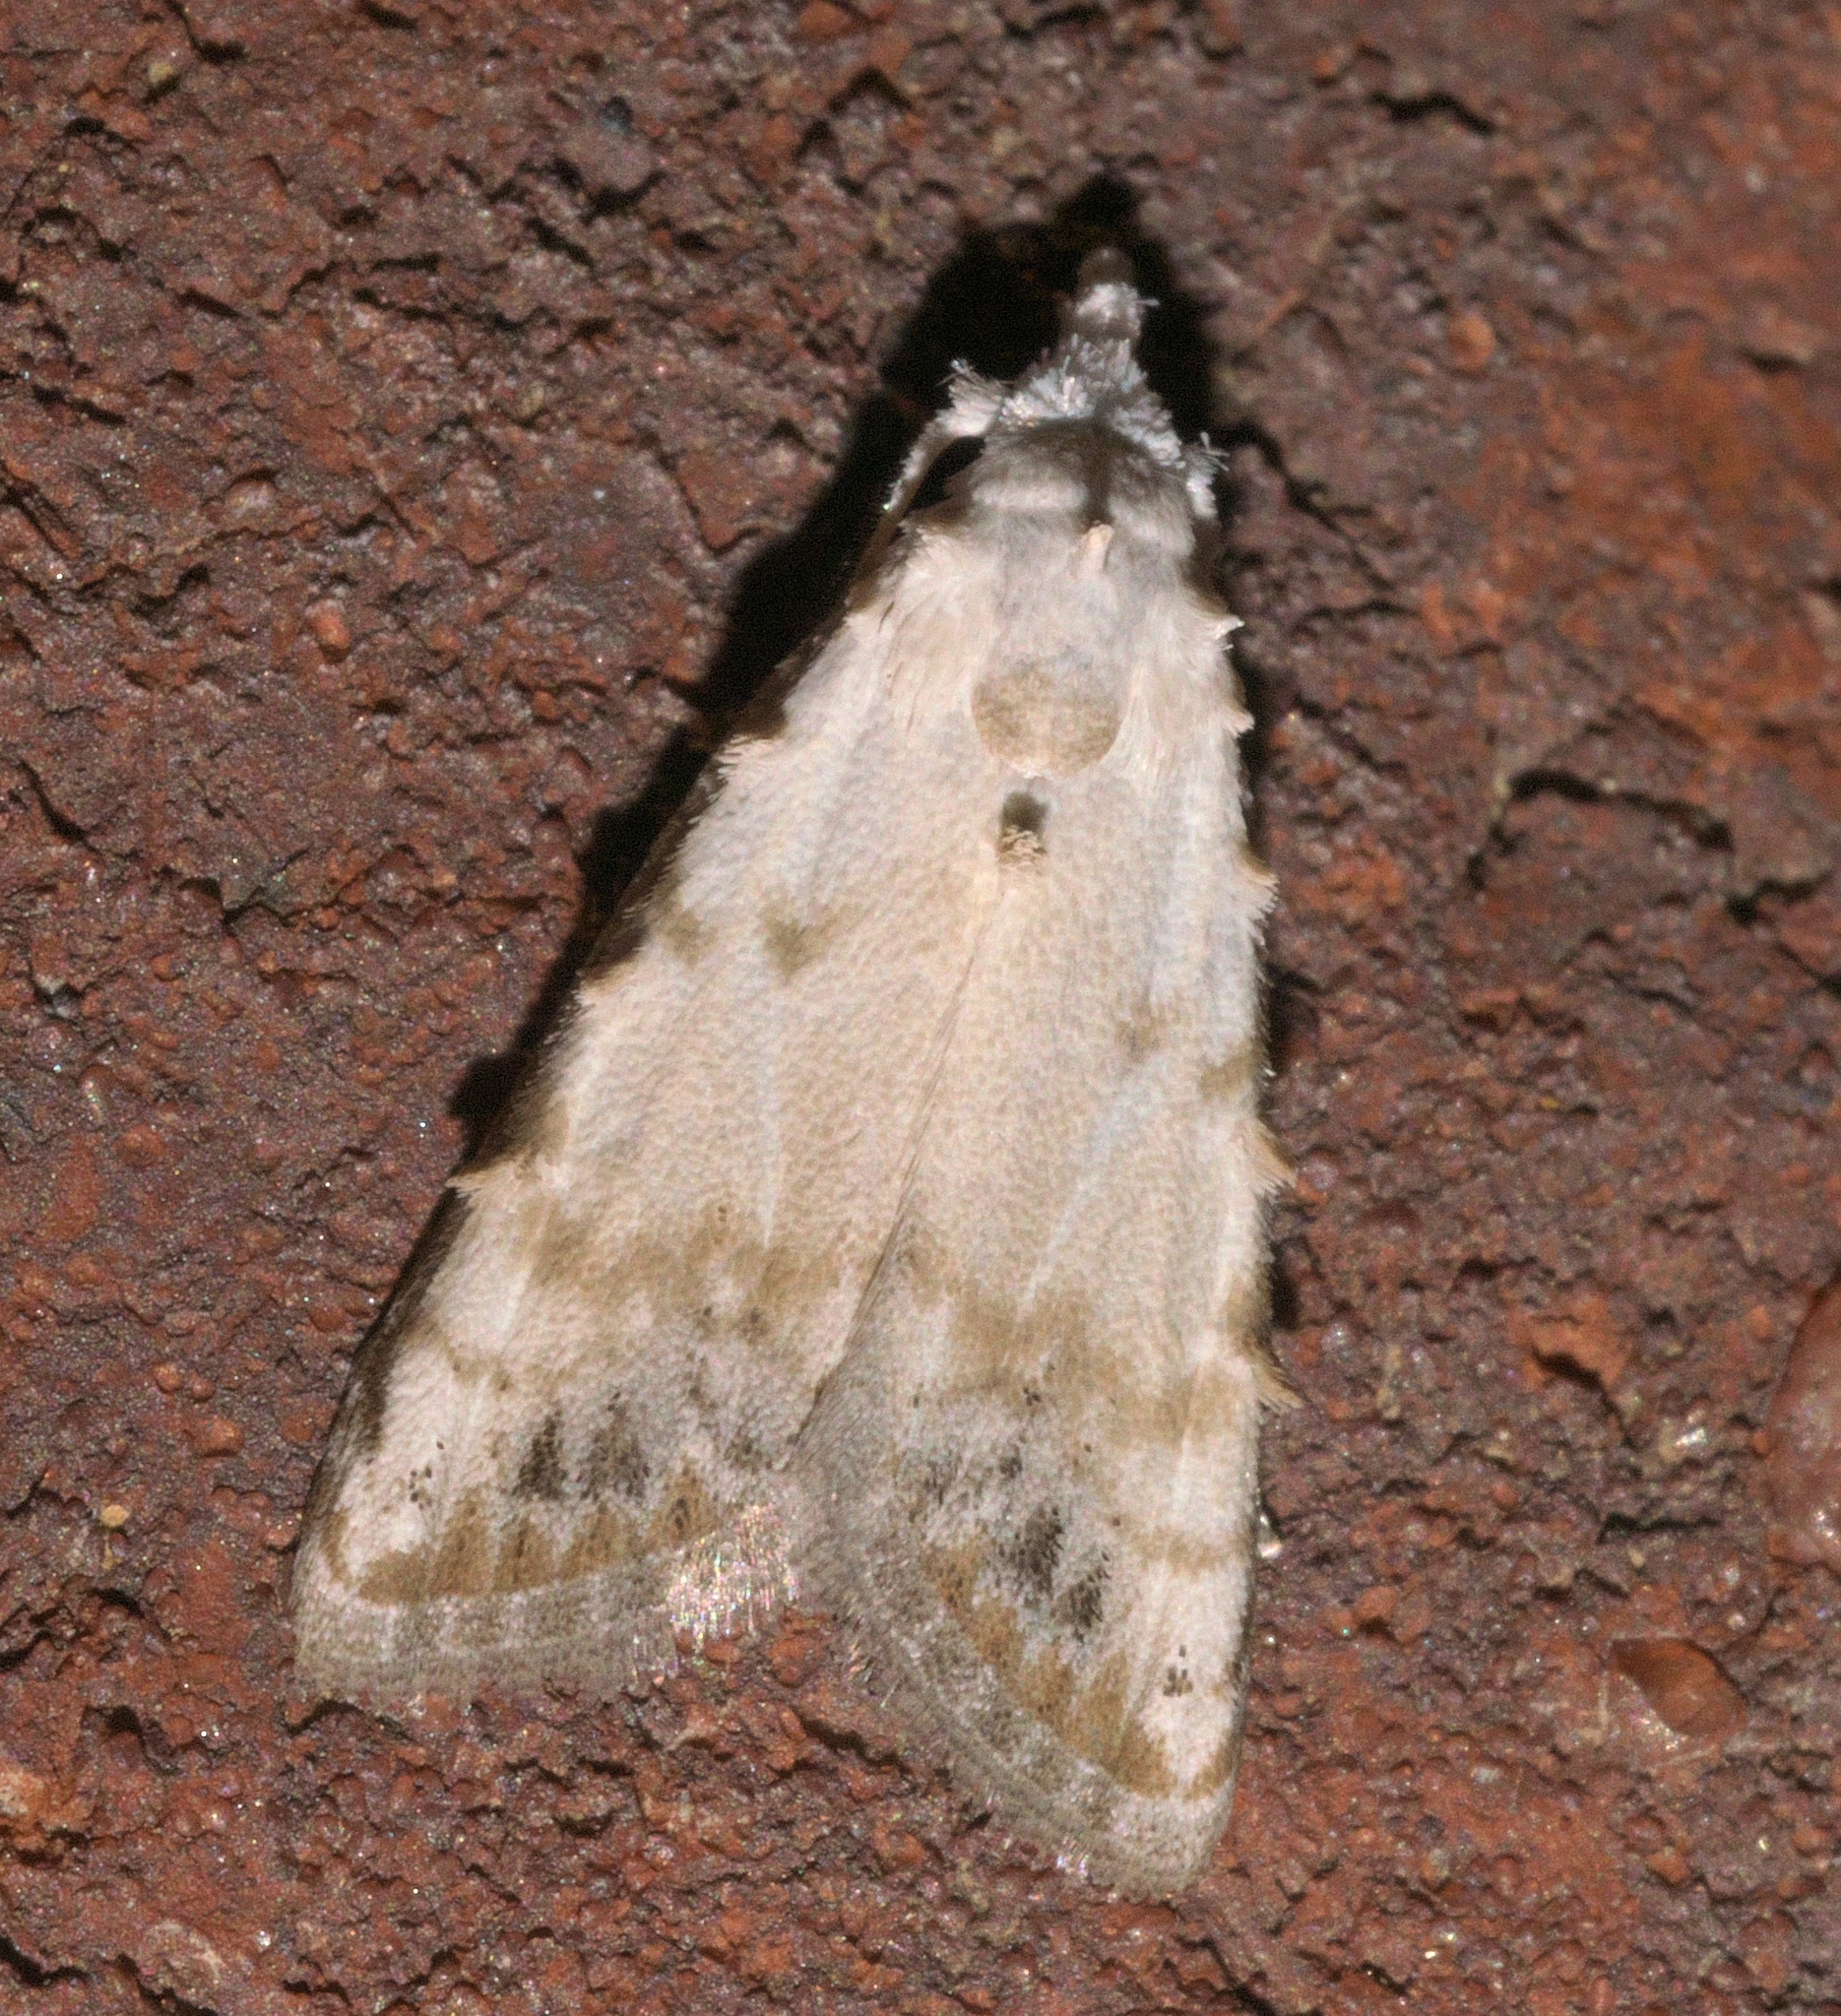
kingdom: Animalia
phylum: Arthropoda
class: Insecta
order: Lepidoptera
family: Nolidae
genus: Nola
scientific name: Nola cereella
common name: Sorghum webworm moth
